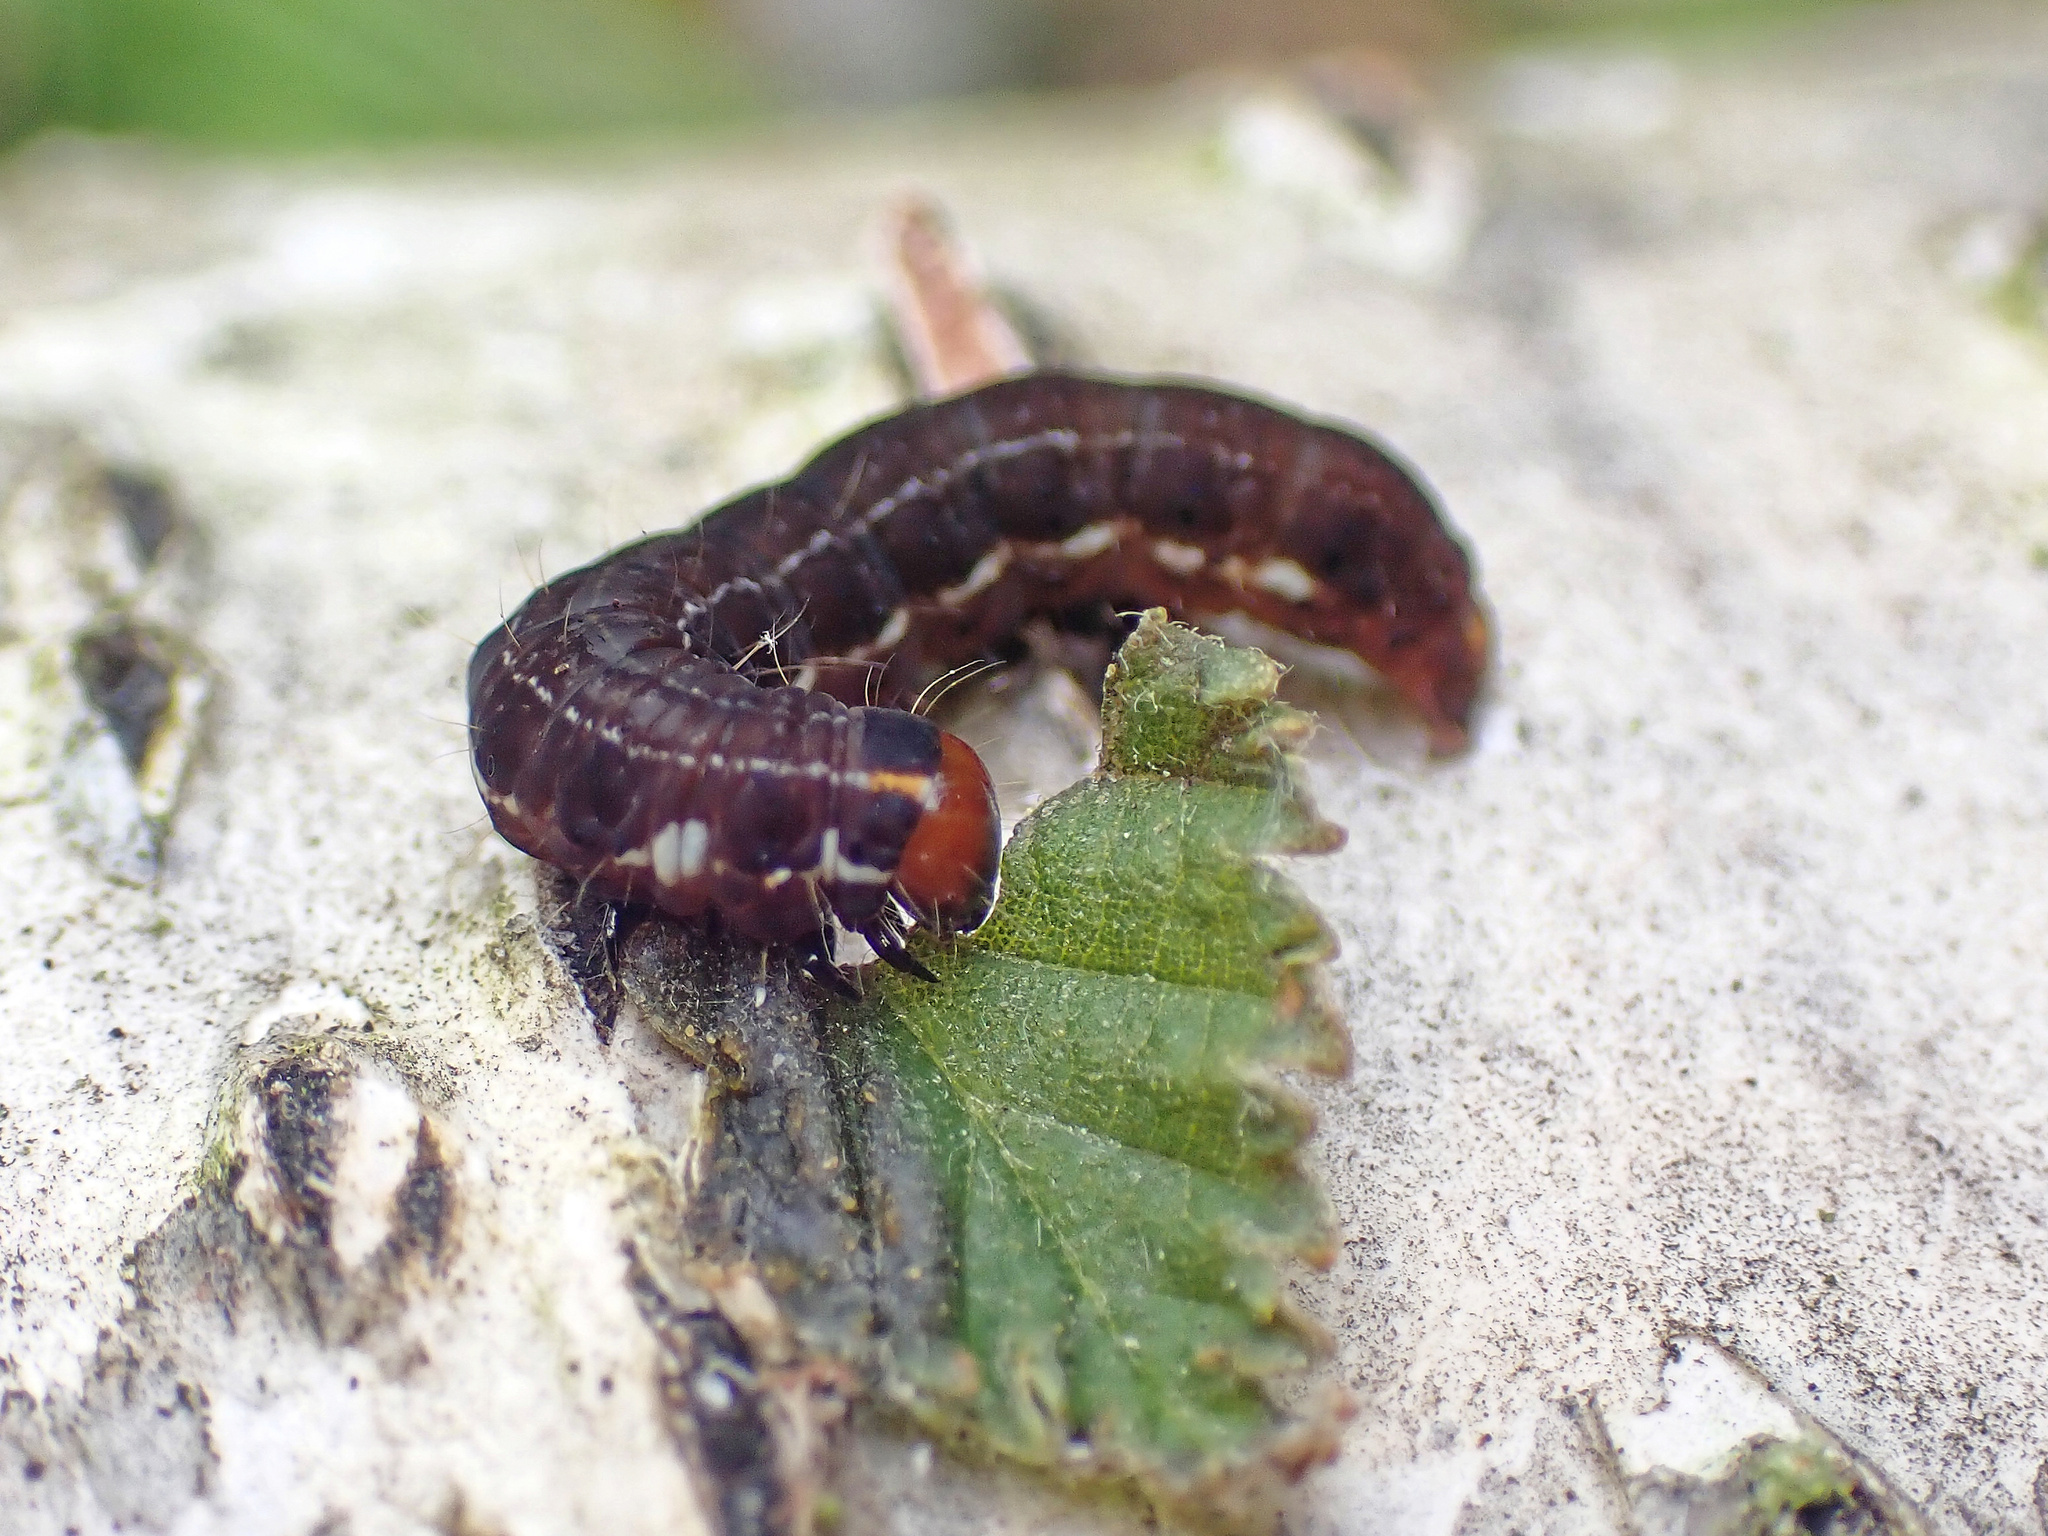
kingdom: Animalia
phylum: Arthropoda
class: Insecta
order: Lepidoptera
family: Noctuidae
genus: Eupsilia
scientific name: Eupsilia transversa
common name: Satellite
